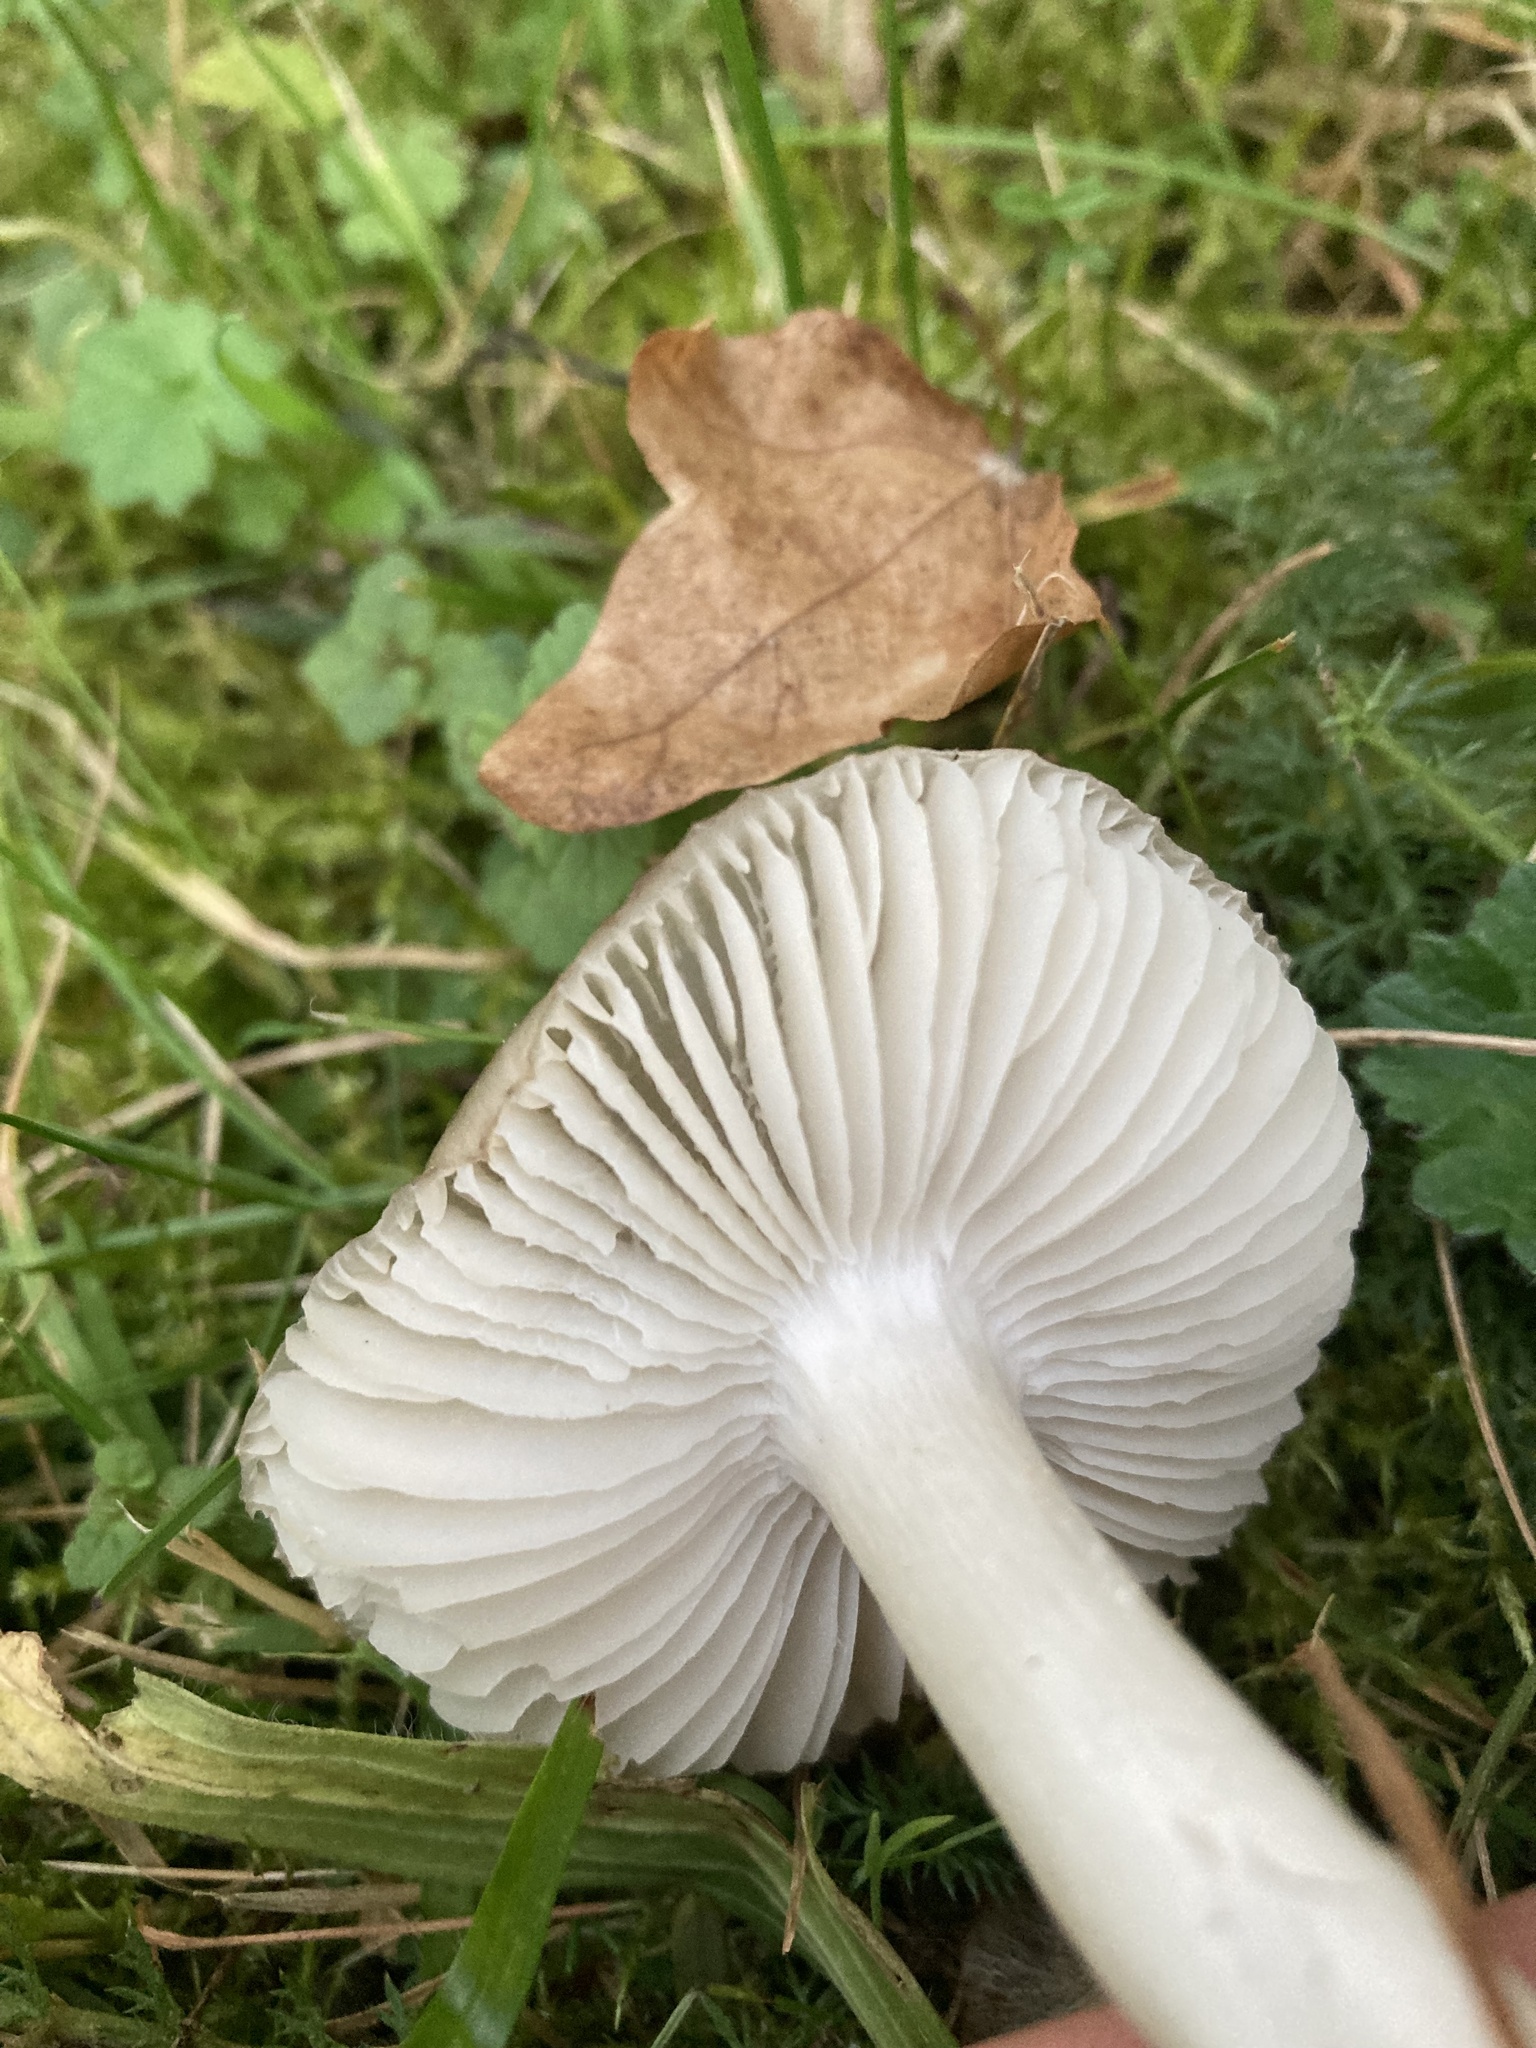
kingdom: Fungi
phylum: Basidiomycota
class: Agaricomycetes
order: Agaricales
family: Hygrophoraceae
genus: Cuphophyllus
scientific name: Cuphophyllus fornicatus
